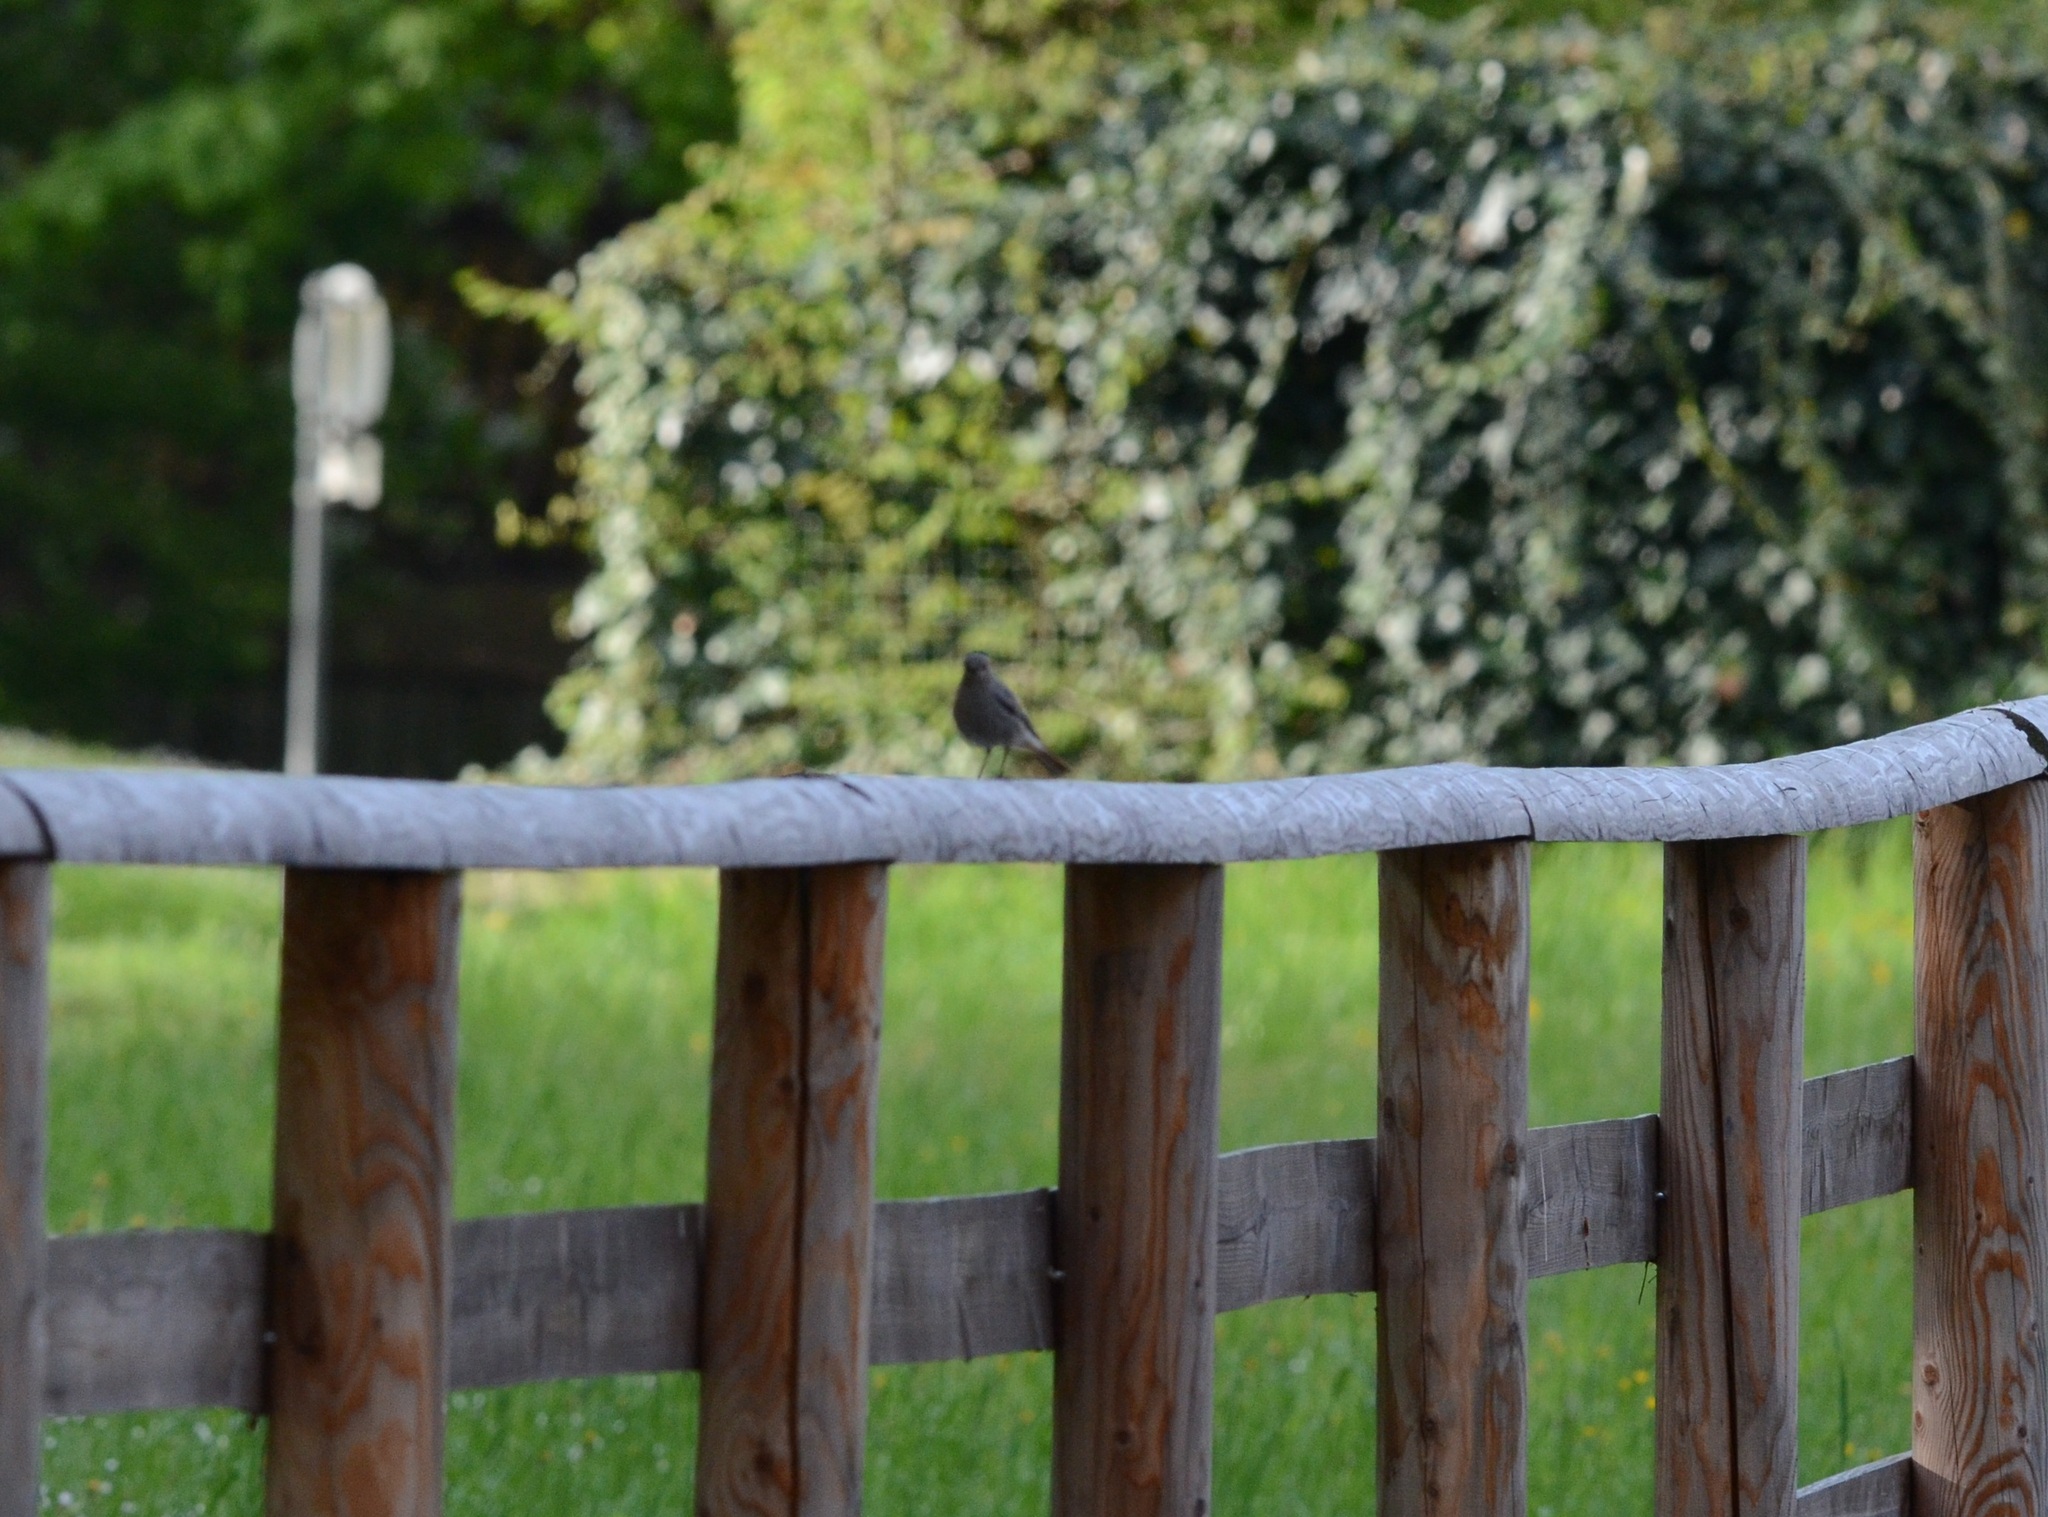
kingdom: Animalia
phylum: Chordata
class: Aves
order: Passeriformes
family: Muscicapidae
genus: Phoenicurus
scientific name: Phoenicurus ochruros
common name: Black redstart
